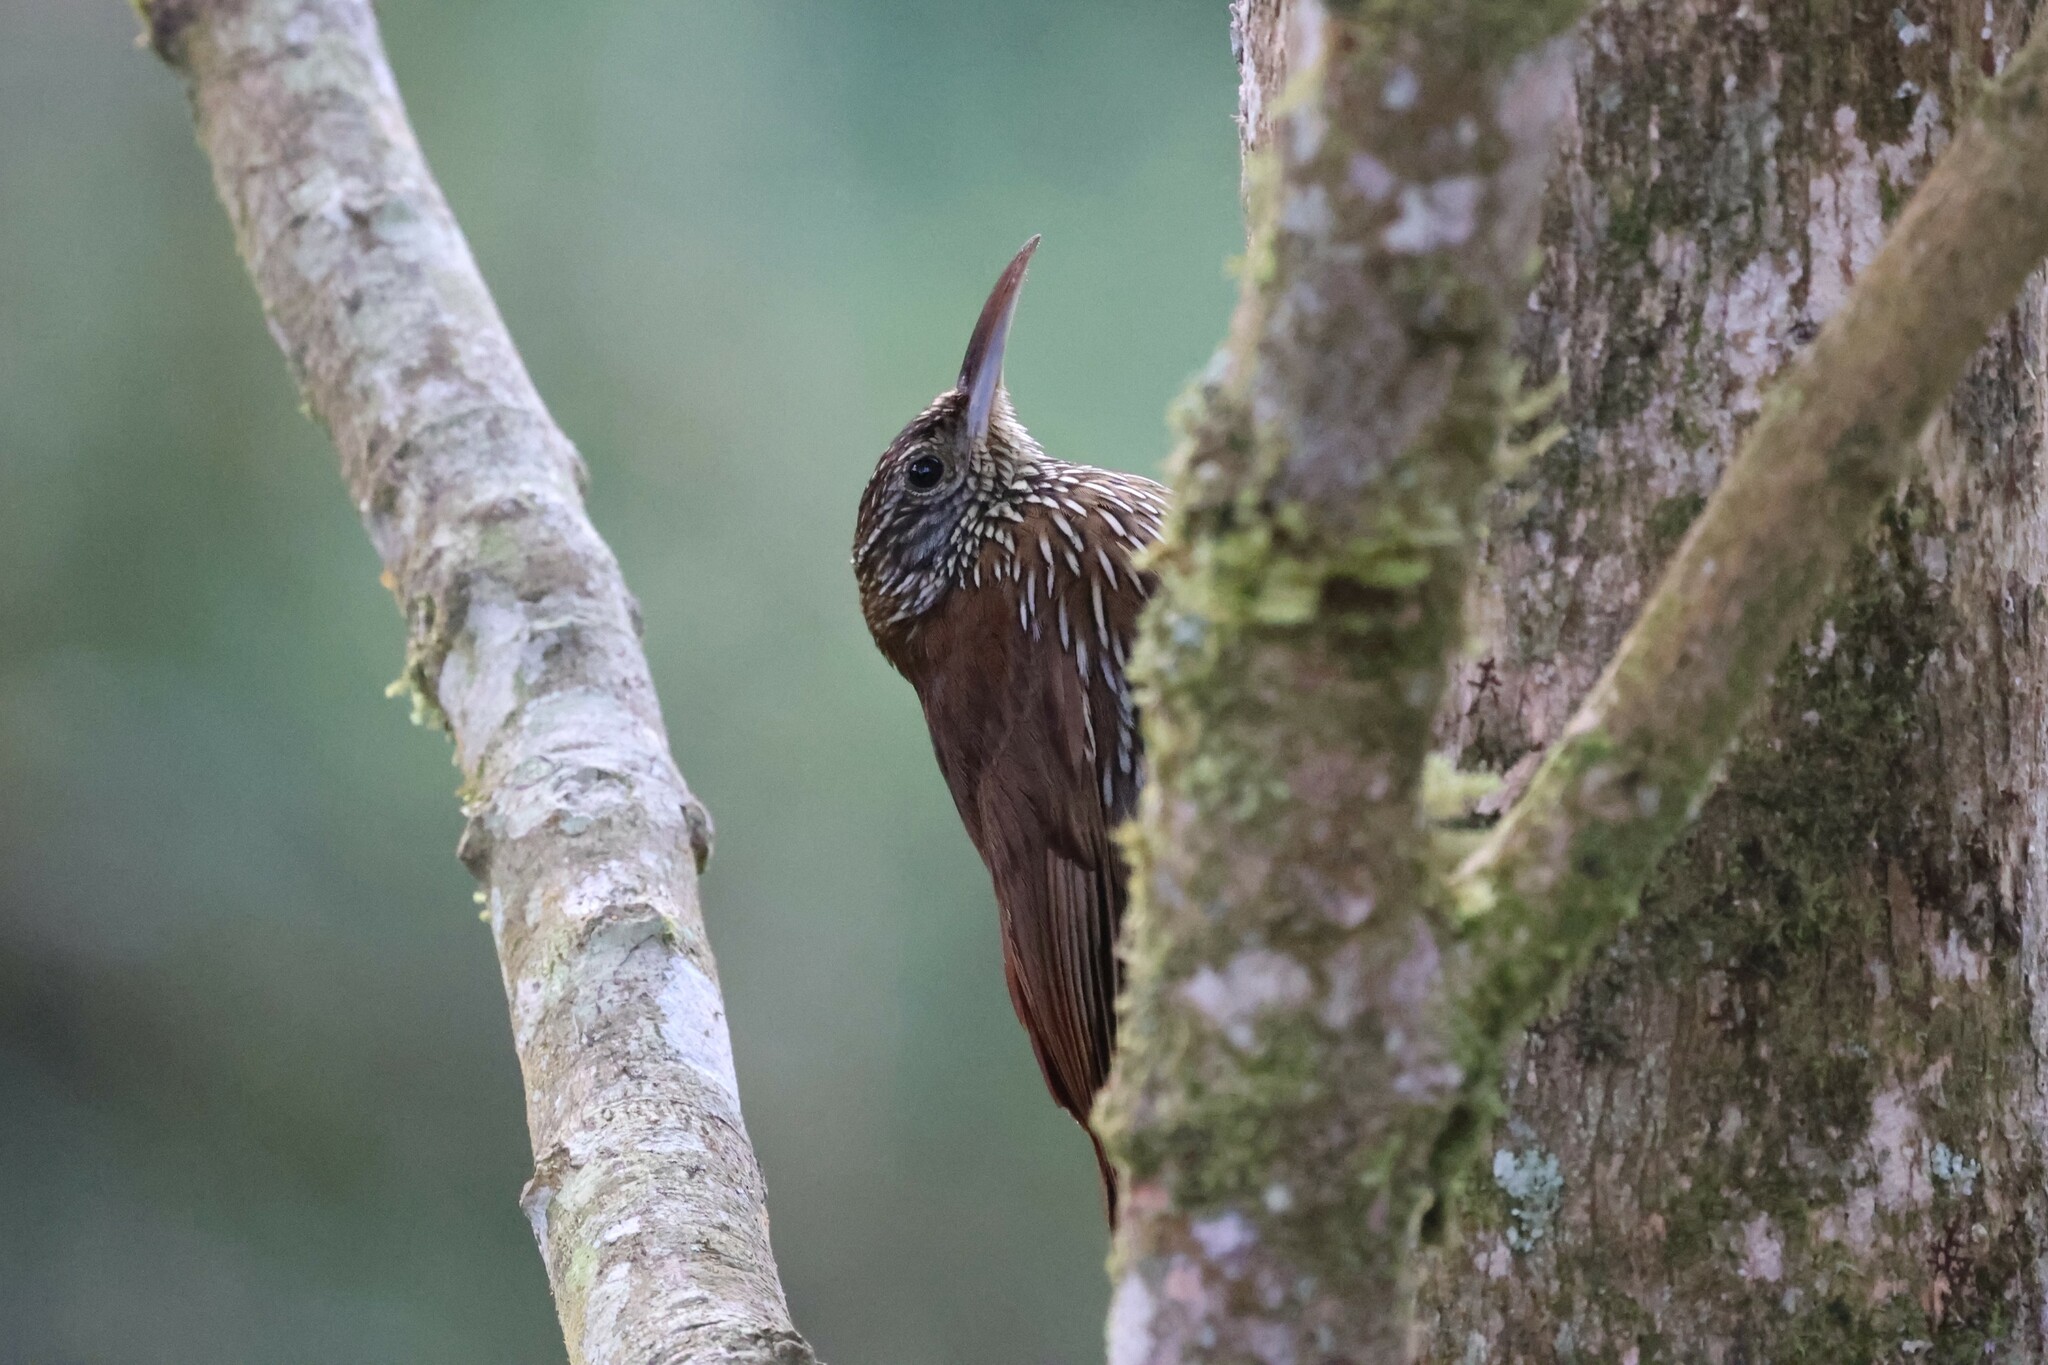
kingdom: Animalia
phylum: Chordata
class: Aves
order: Passeriformes
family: Furnariidae
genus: Lepidocolaptes
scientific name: Lepidocolaptes lacrymiger
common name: Montane woodcreeper
